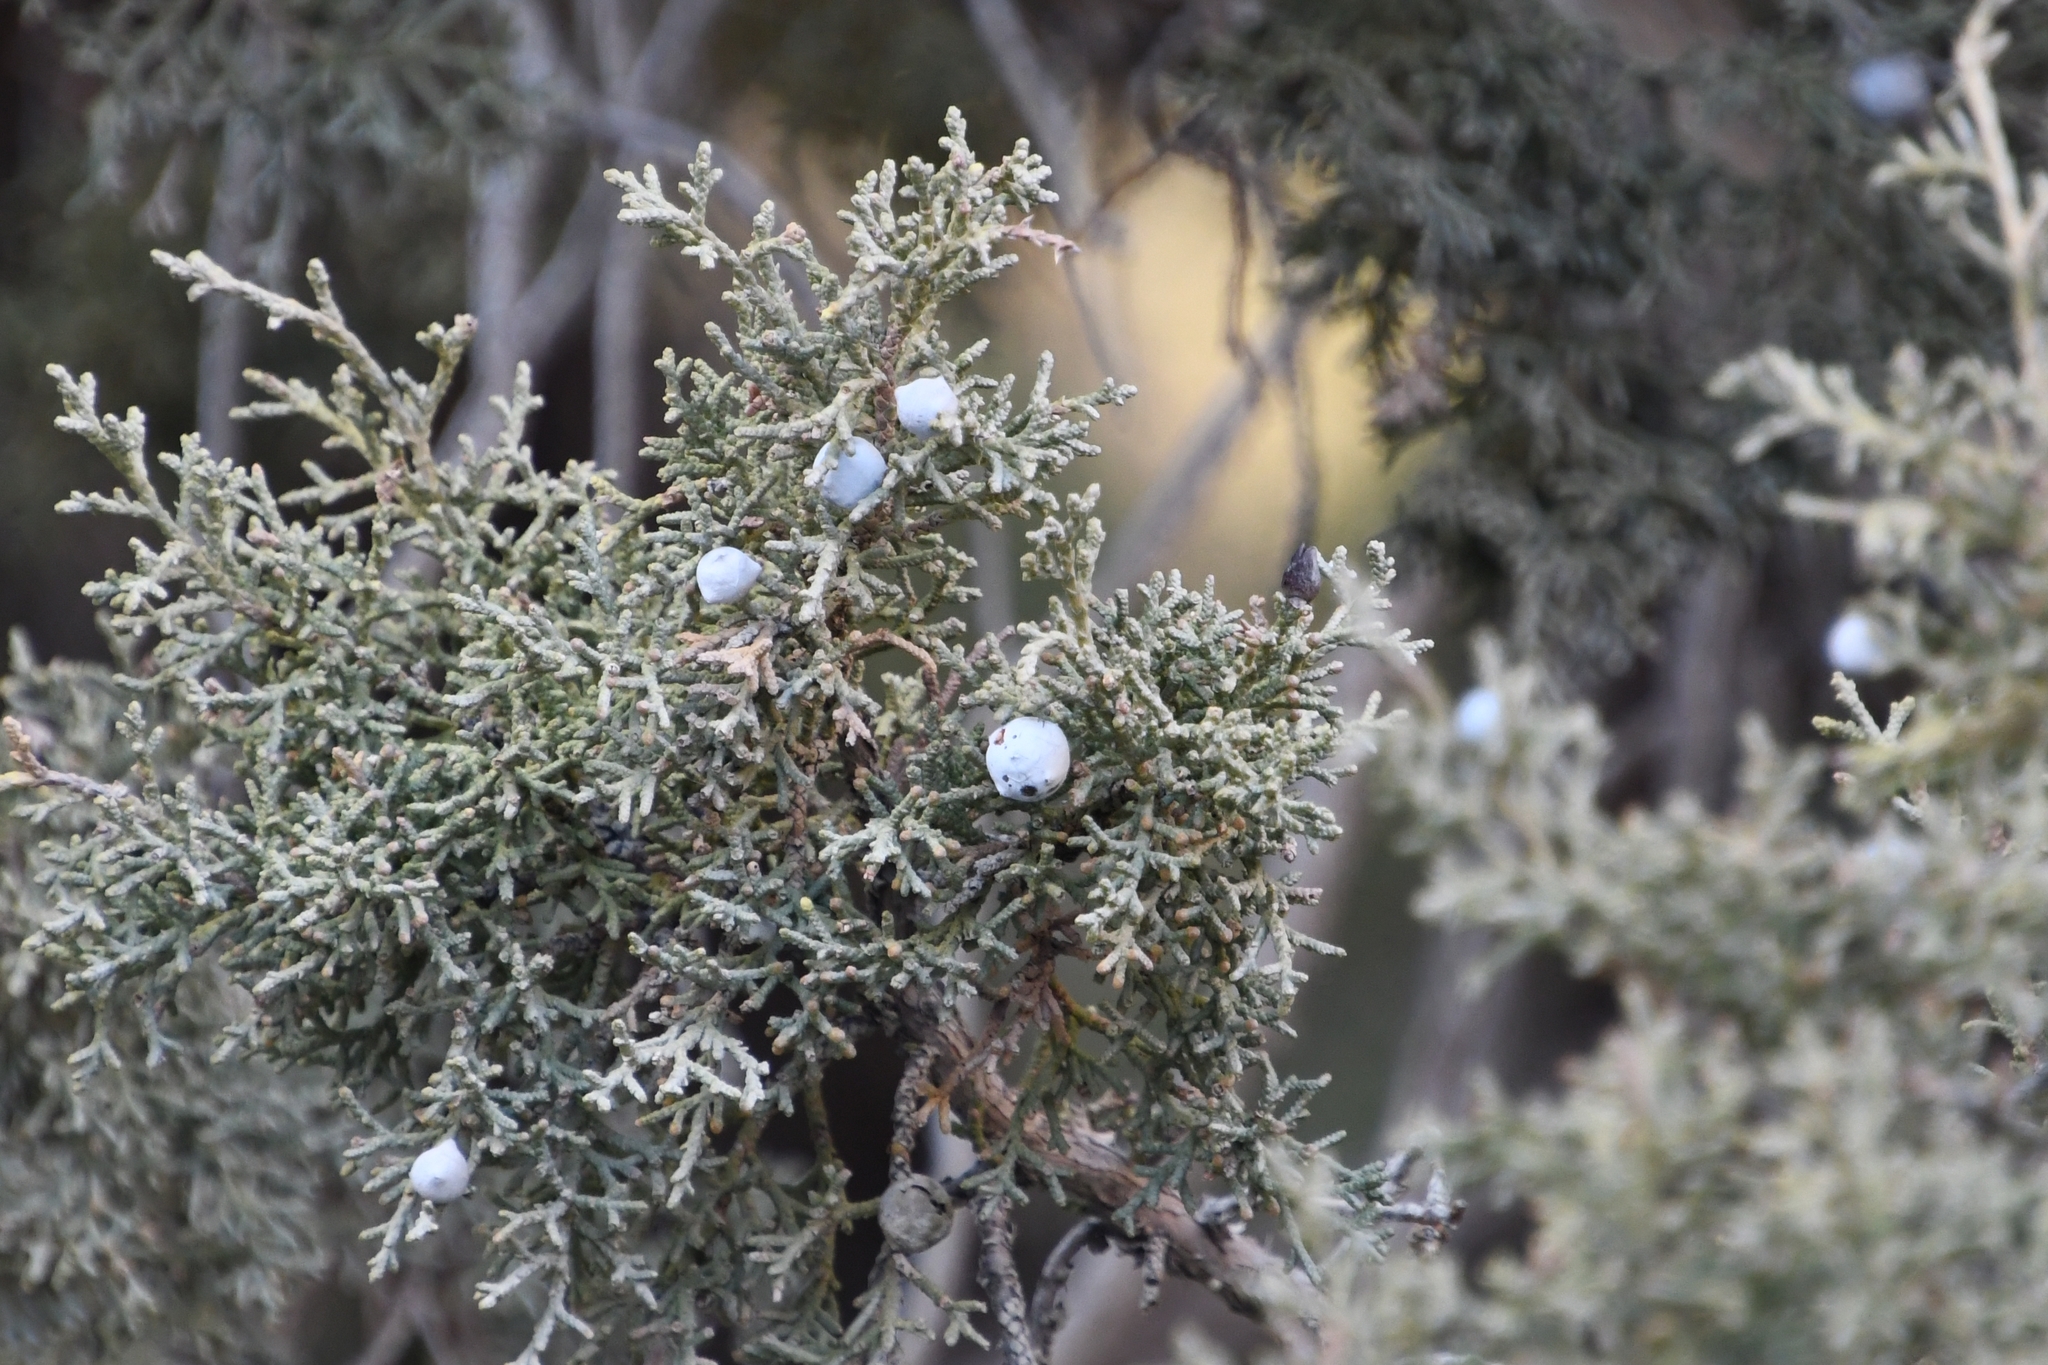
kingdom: Plantae
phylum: Tracheophyta
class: Pinopsida
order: Pinales
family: Cupressaceae
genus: Juniperus
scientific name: Juniperus osteosperma
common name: Utah juniper
